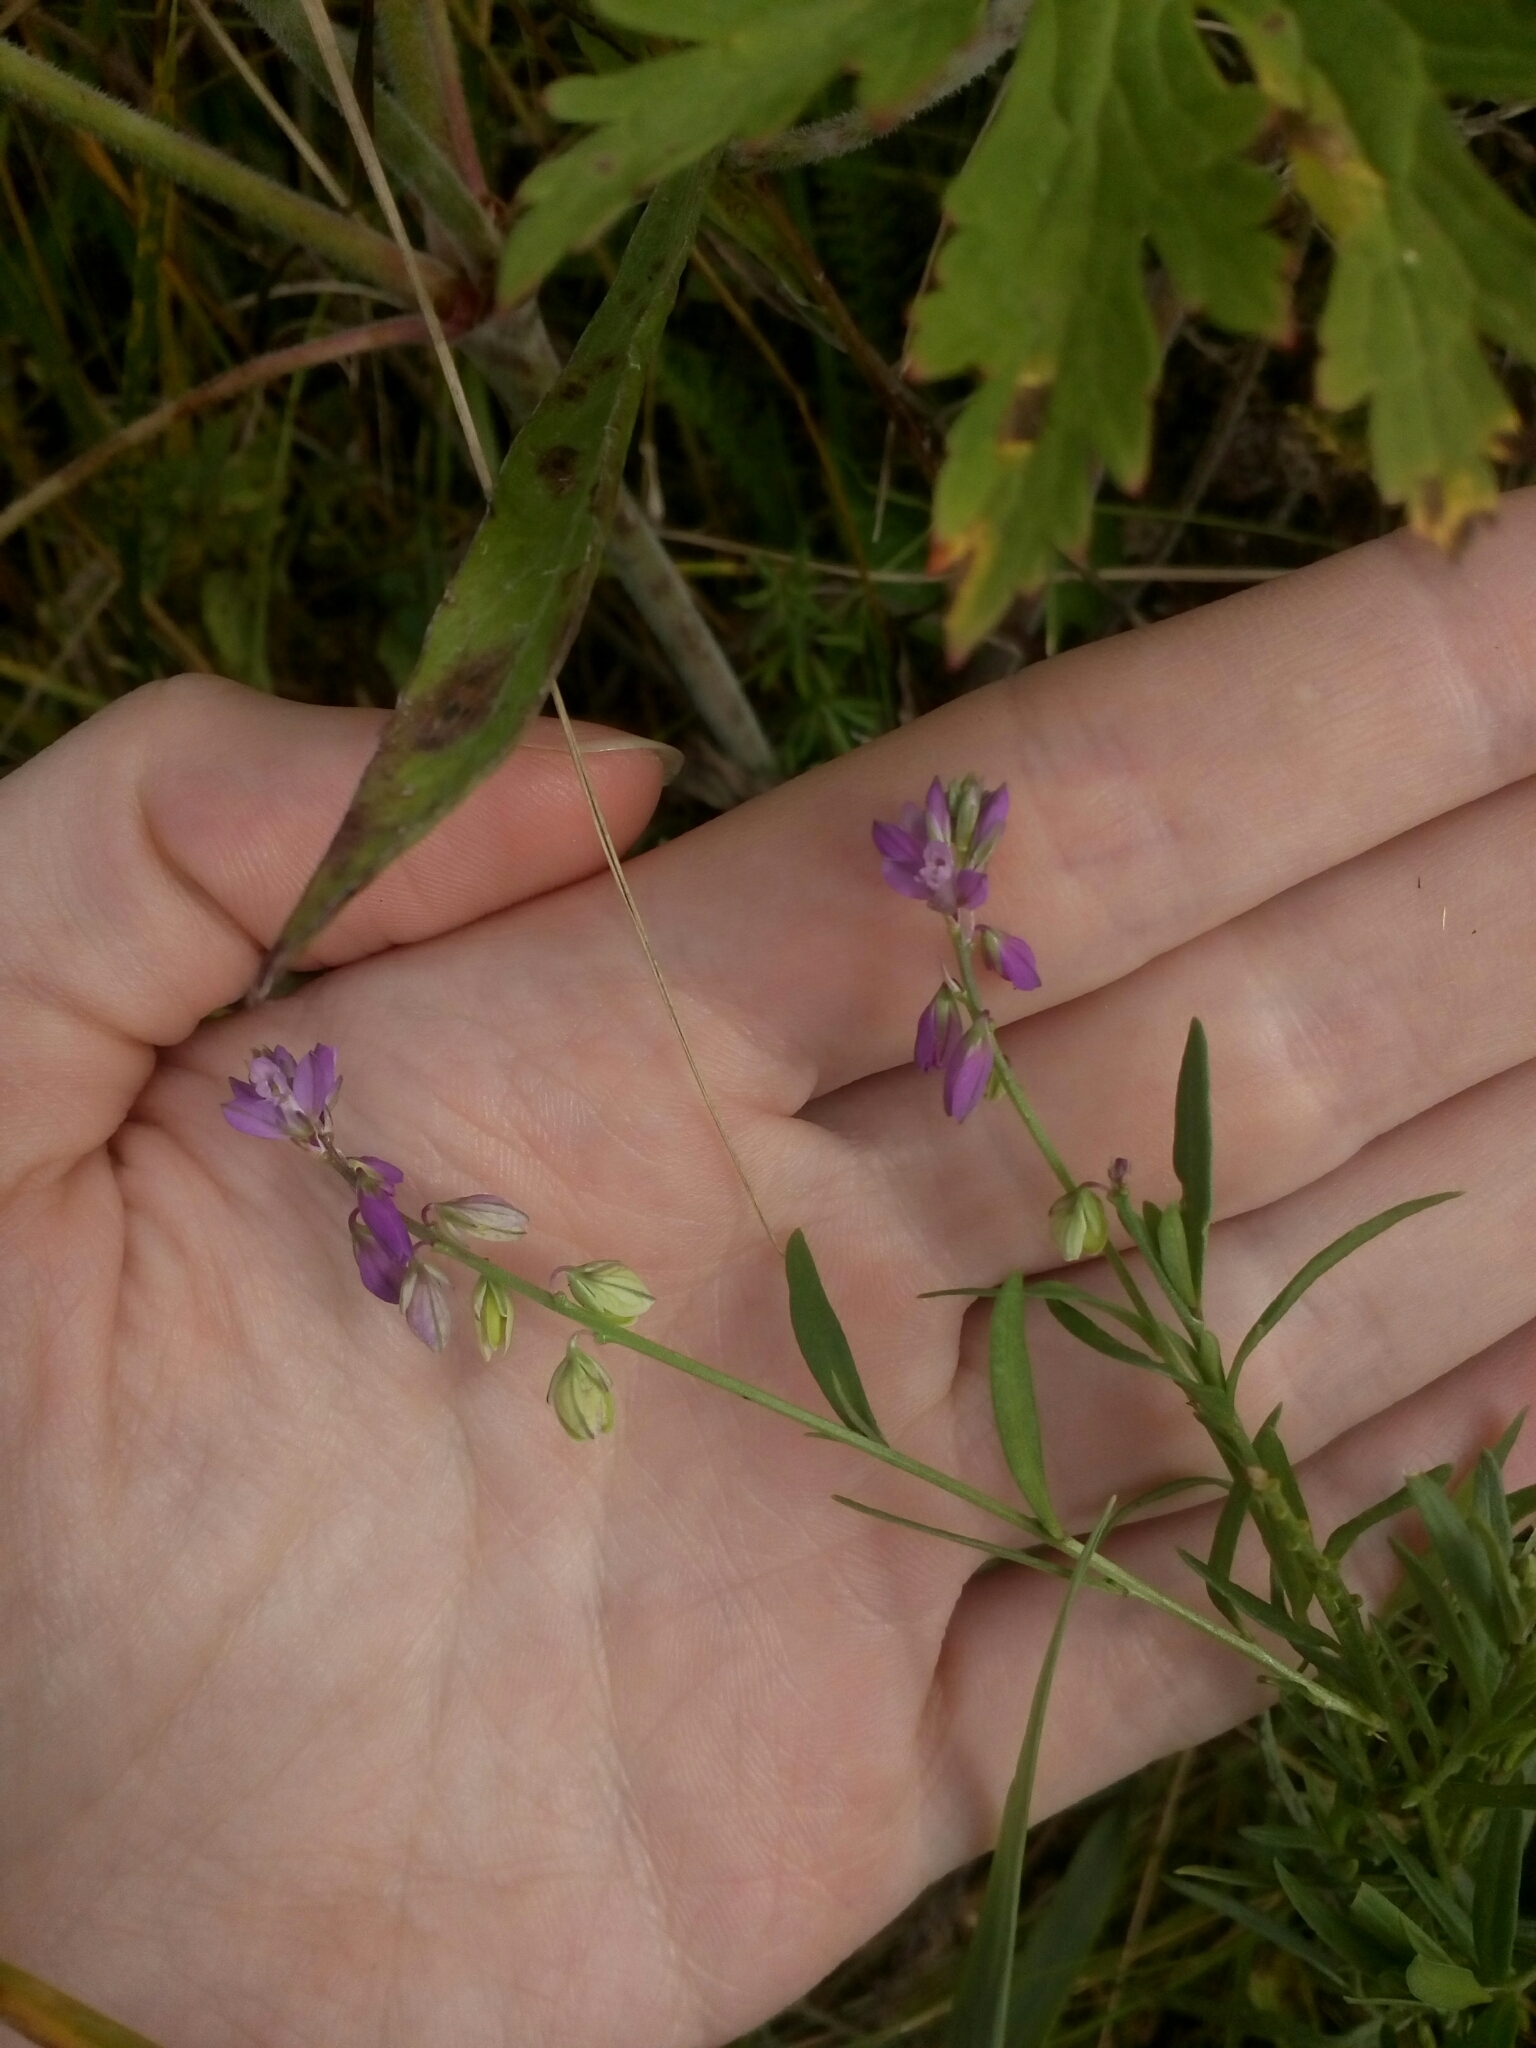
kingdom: Plantae
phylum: Tracheophyta
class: Magnoliopsida
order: Fabales
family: Polygalaceae
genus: Polygala
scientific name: Polygala comosa
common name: Tufted milkwort
